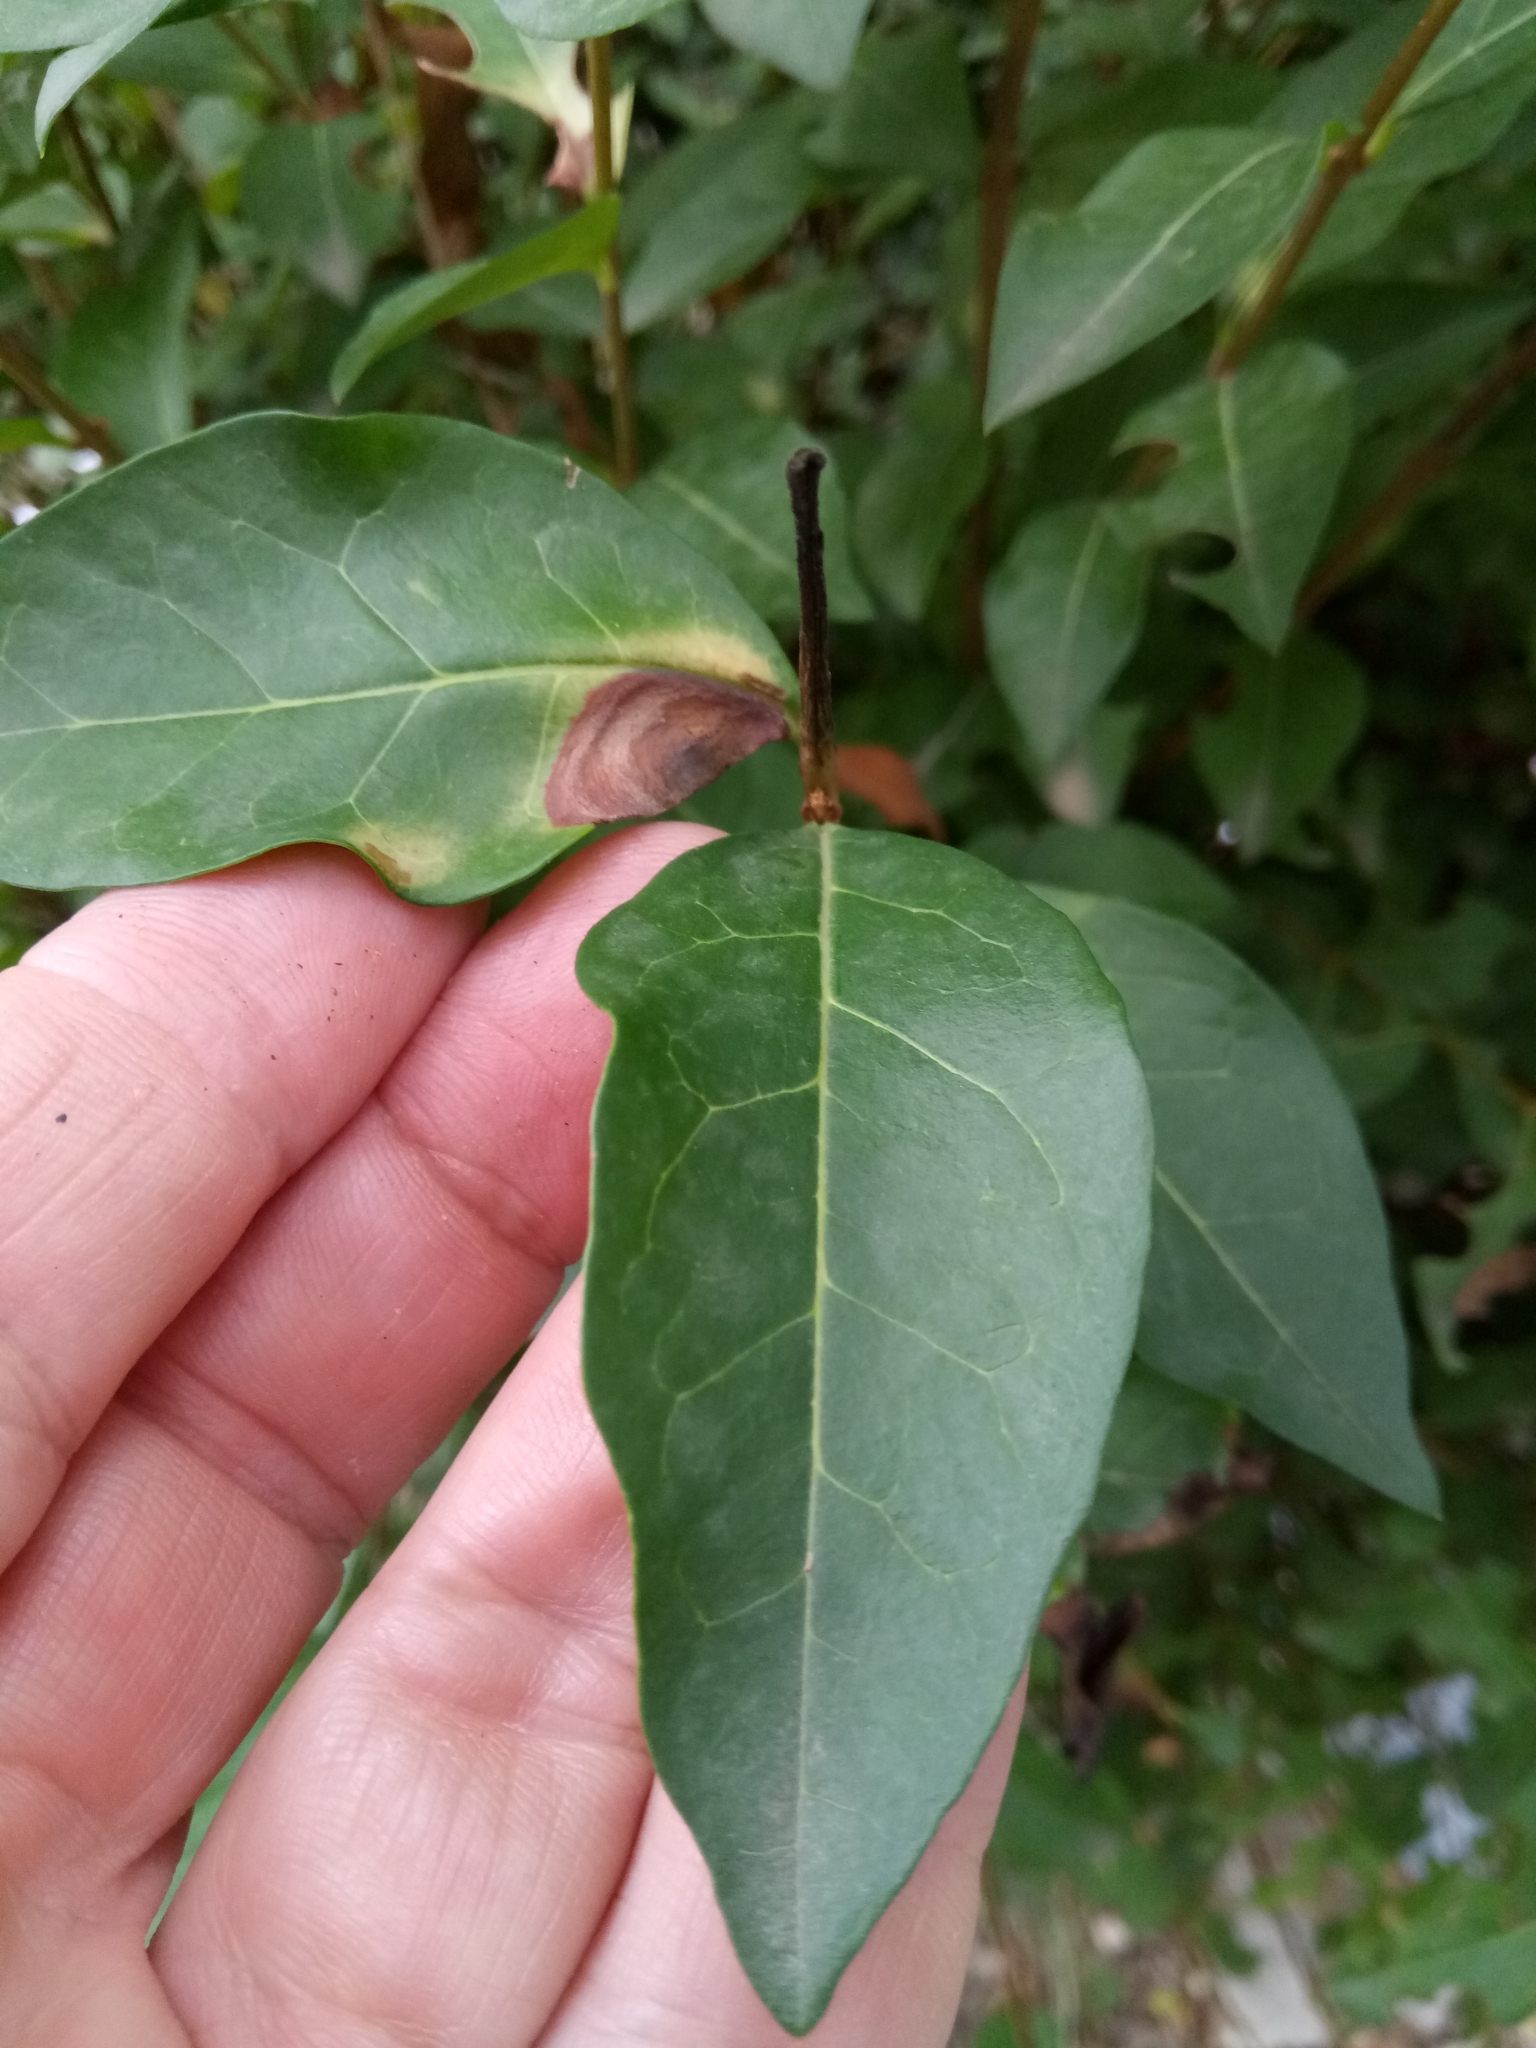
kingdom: Plantae
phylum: Tracheophyta
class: Magnoliopsida
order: Lamiales
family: Oleaceae
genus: Ligustrum
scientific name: Ligustrum lucidum
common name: Glossy privet
